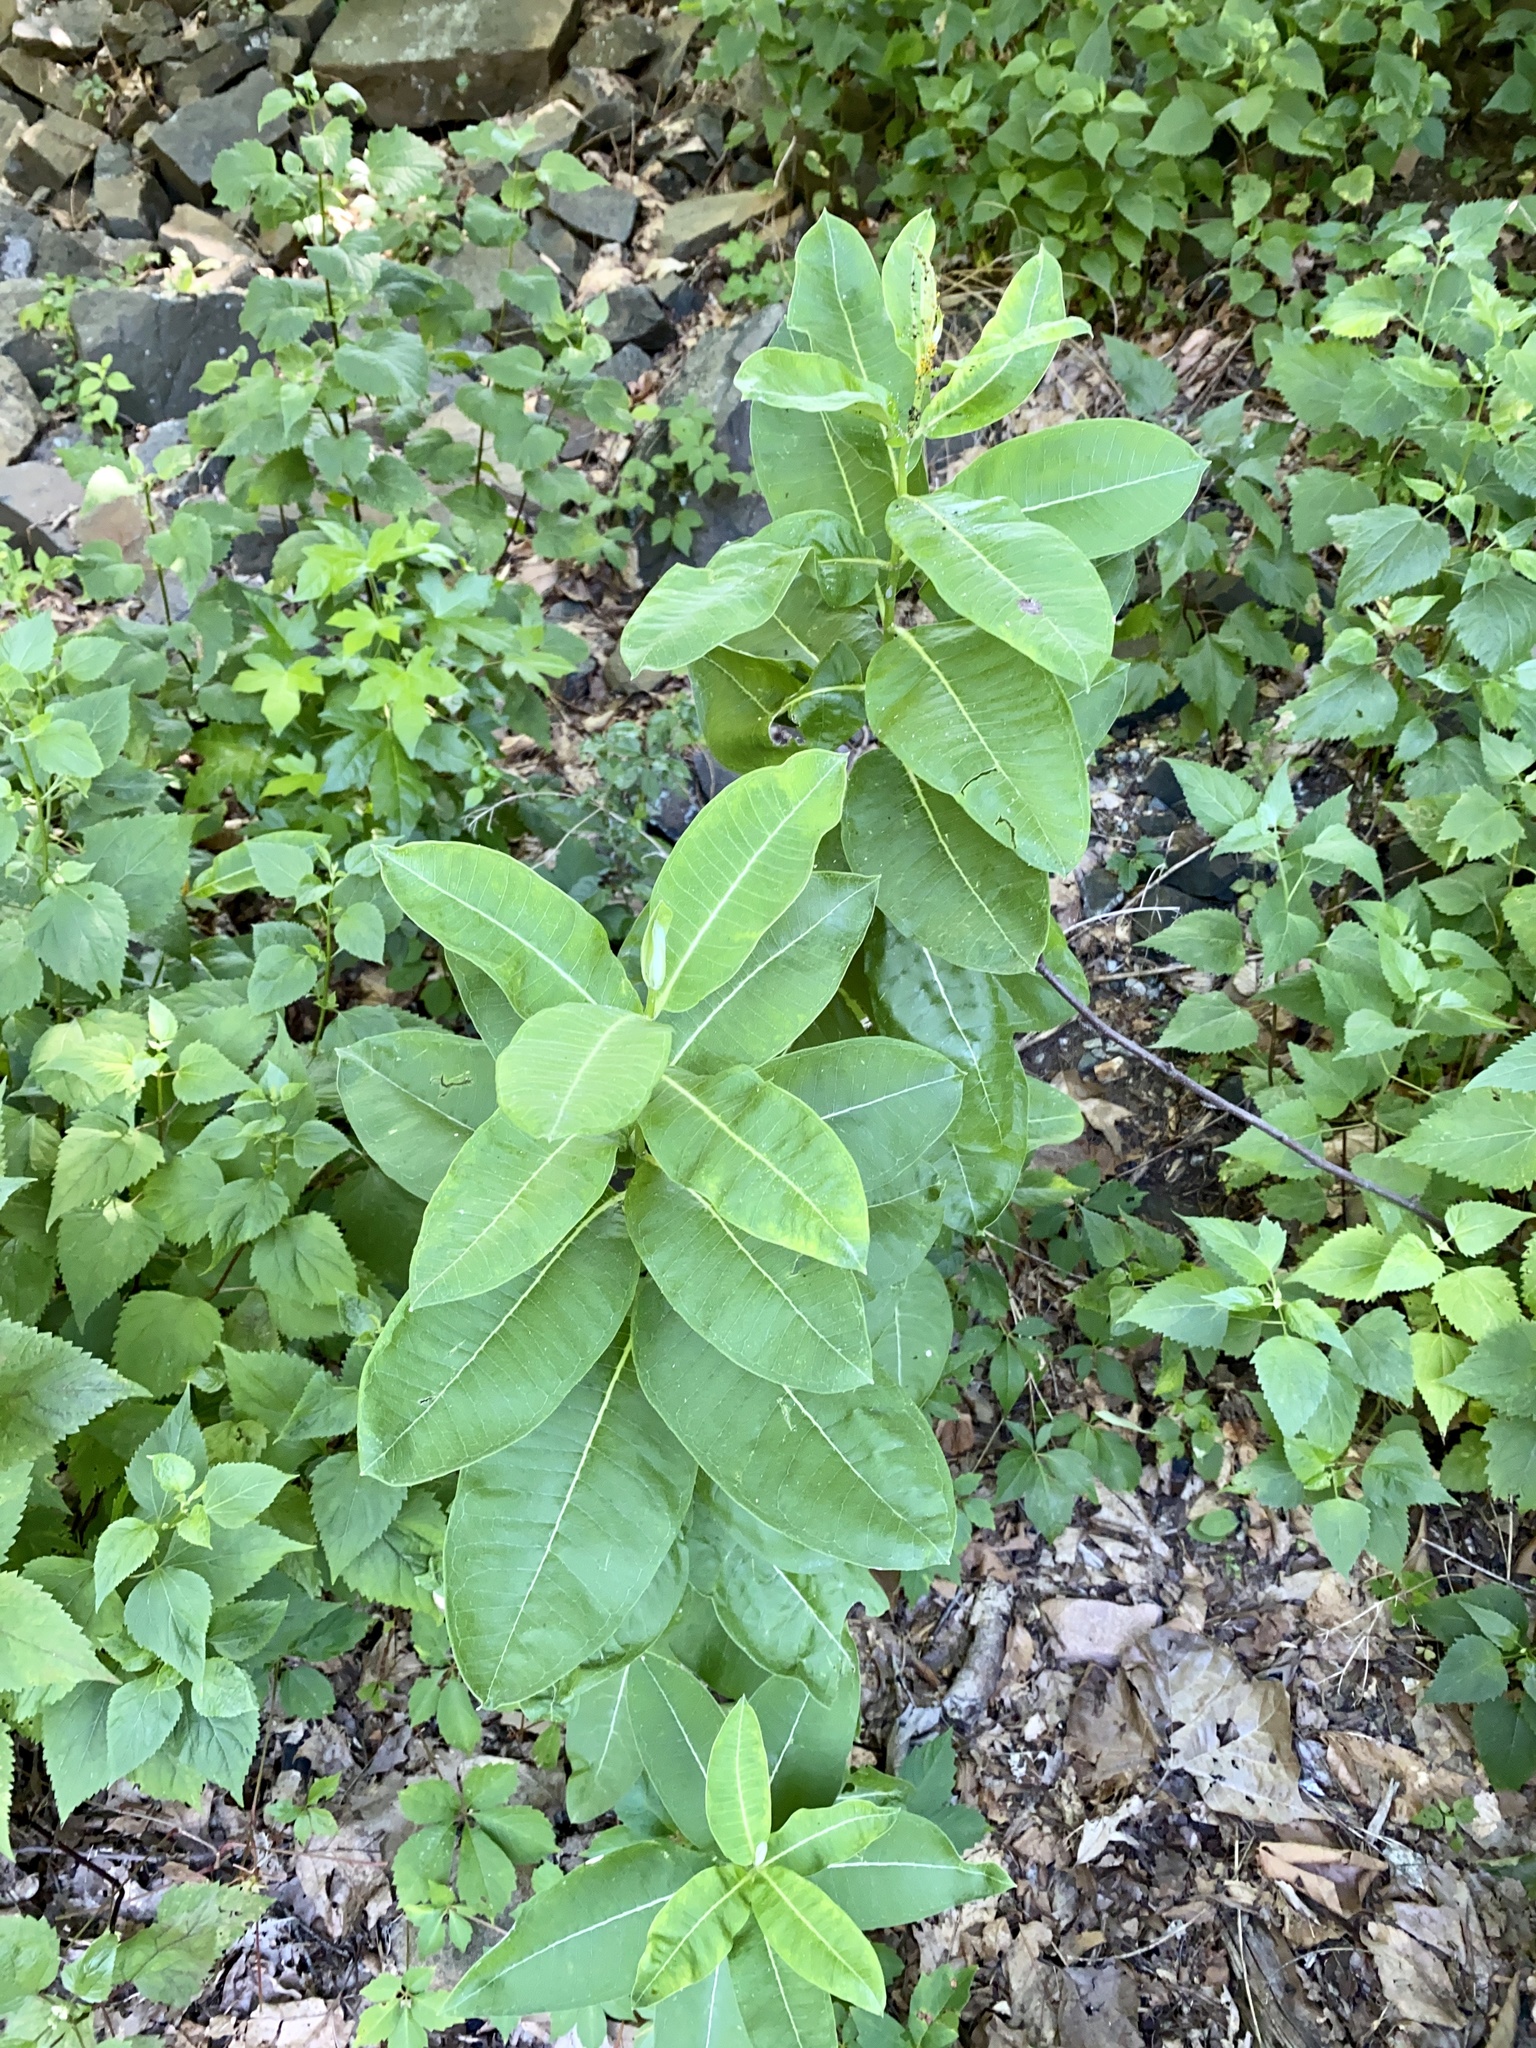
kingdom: Plantae
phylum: Tracheophyta
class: Magnoliopsida
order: Gentianales
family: Apocynaceae
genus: Asclepias
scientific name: Asclepias syriaca
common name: Common milkweed
